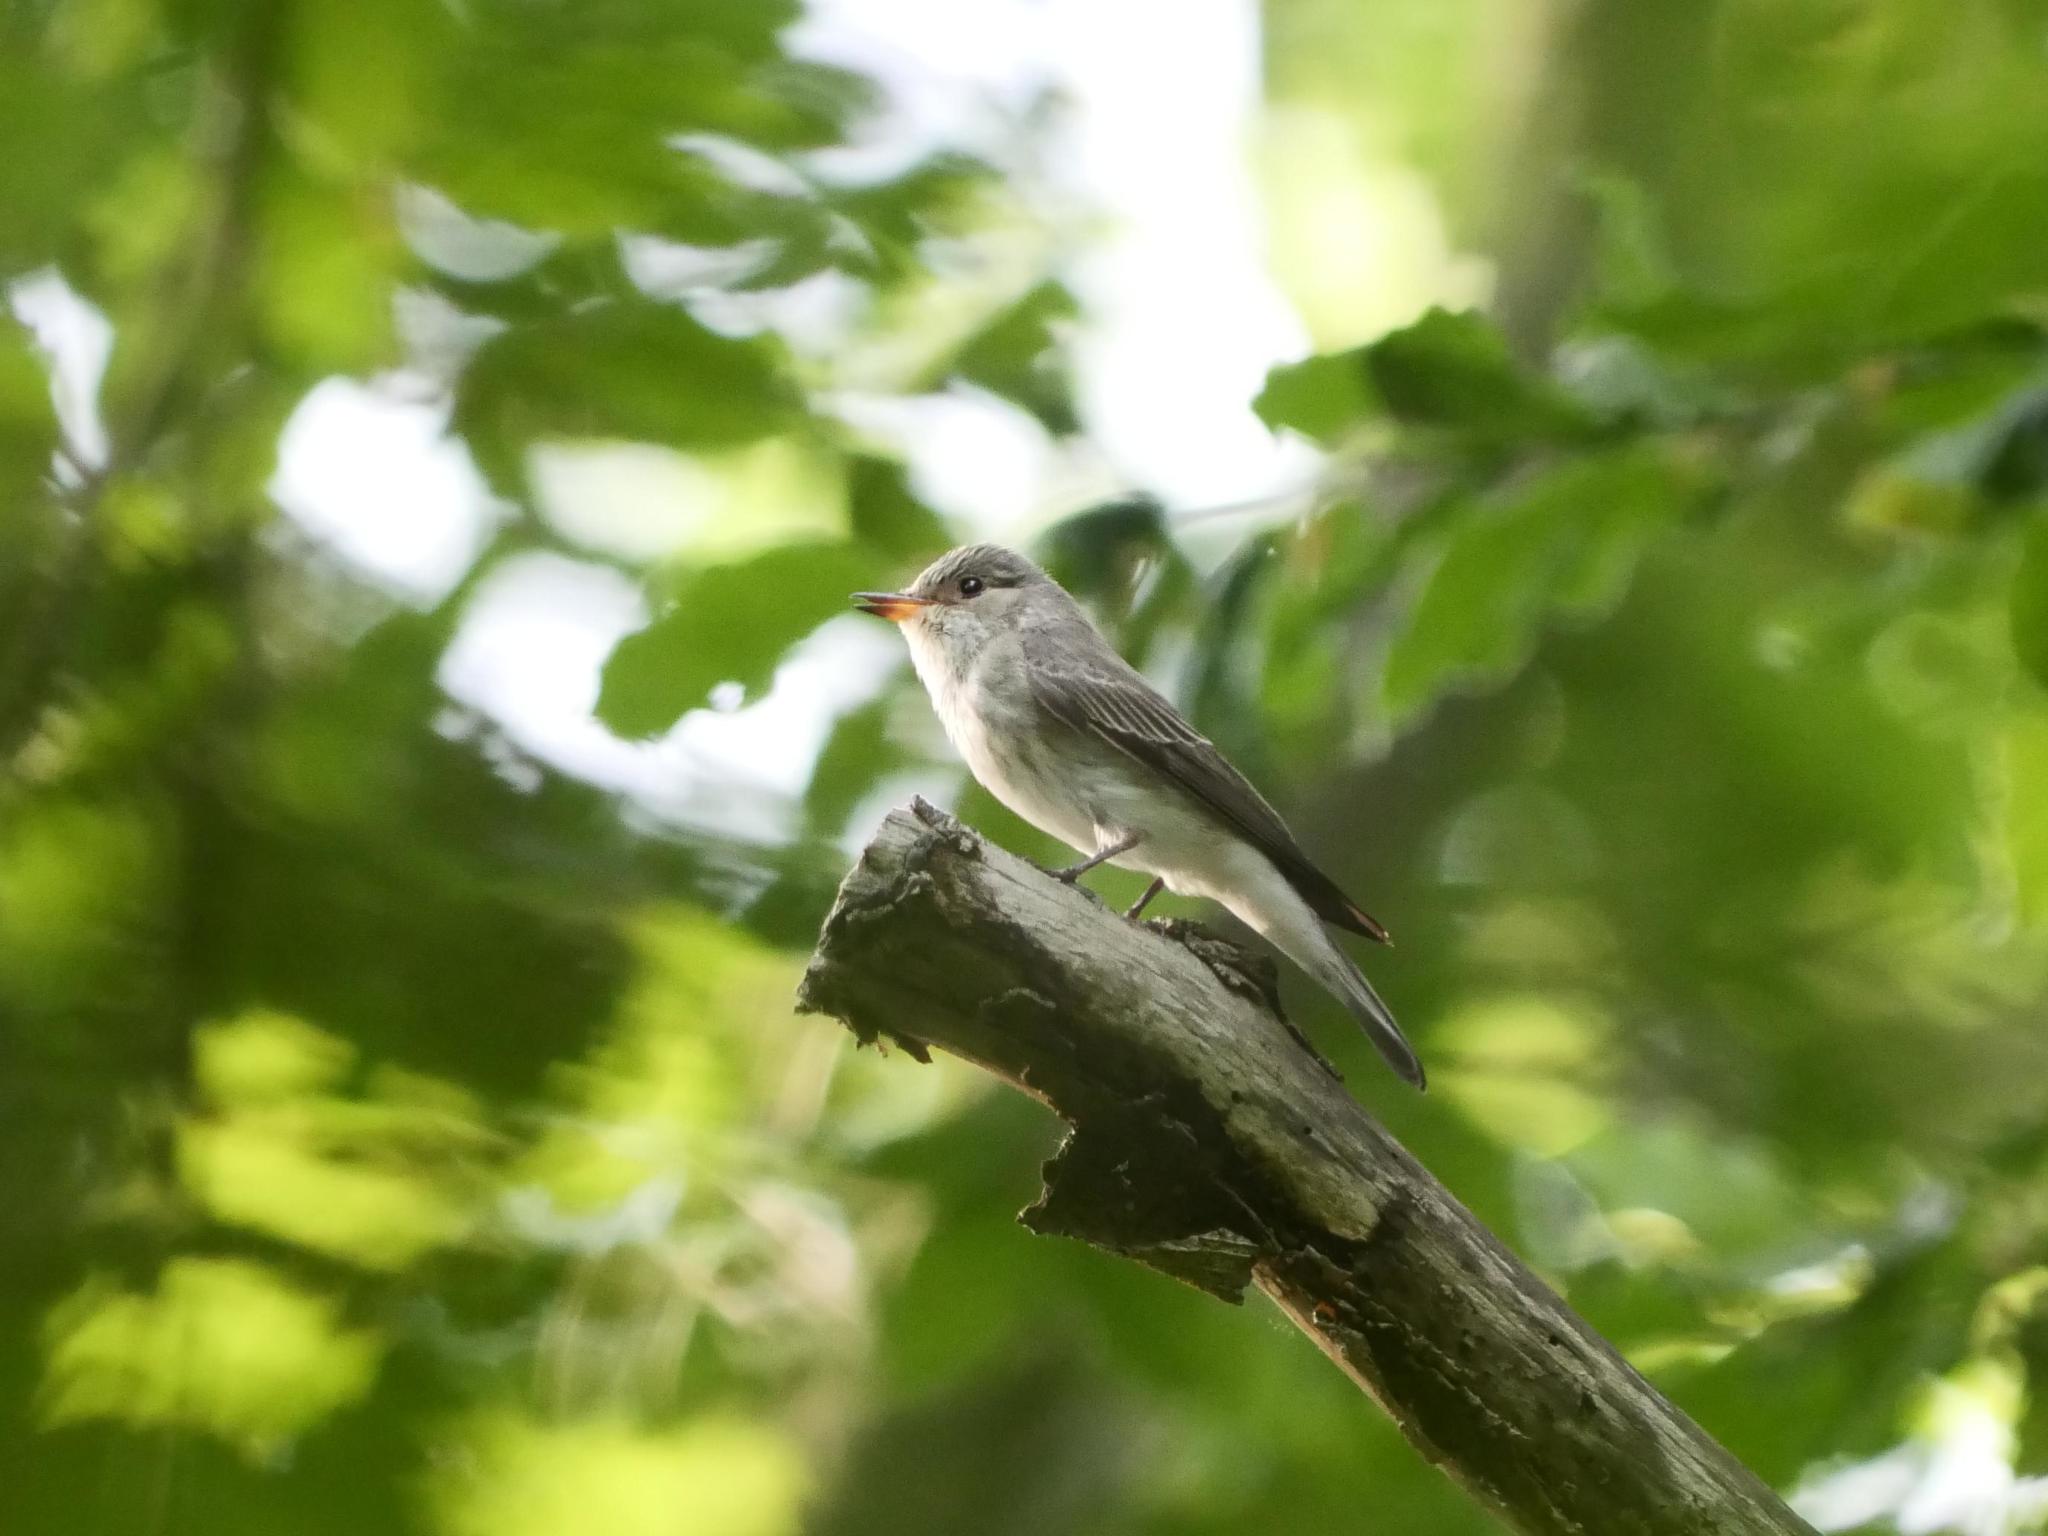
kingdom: Animalia
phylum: Chordata
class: Aves
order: Passeriformes
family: Muscicapidae
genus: Muscicapa
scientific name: Muscicapa striata
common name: Spotted flycatcher
